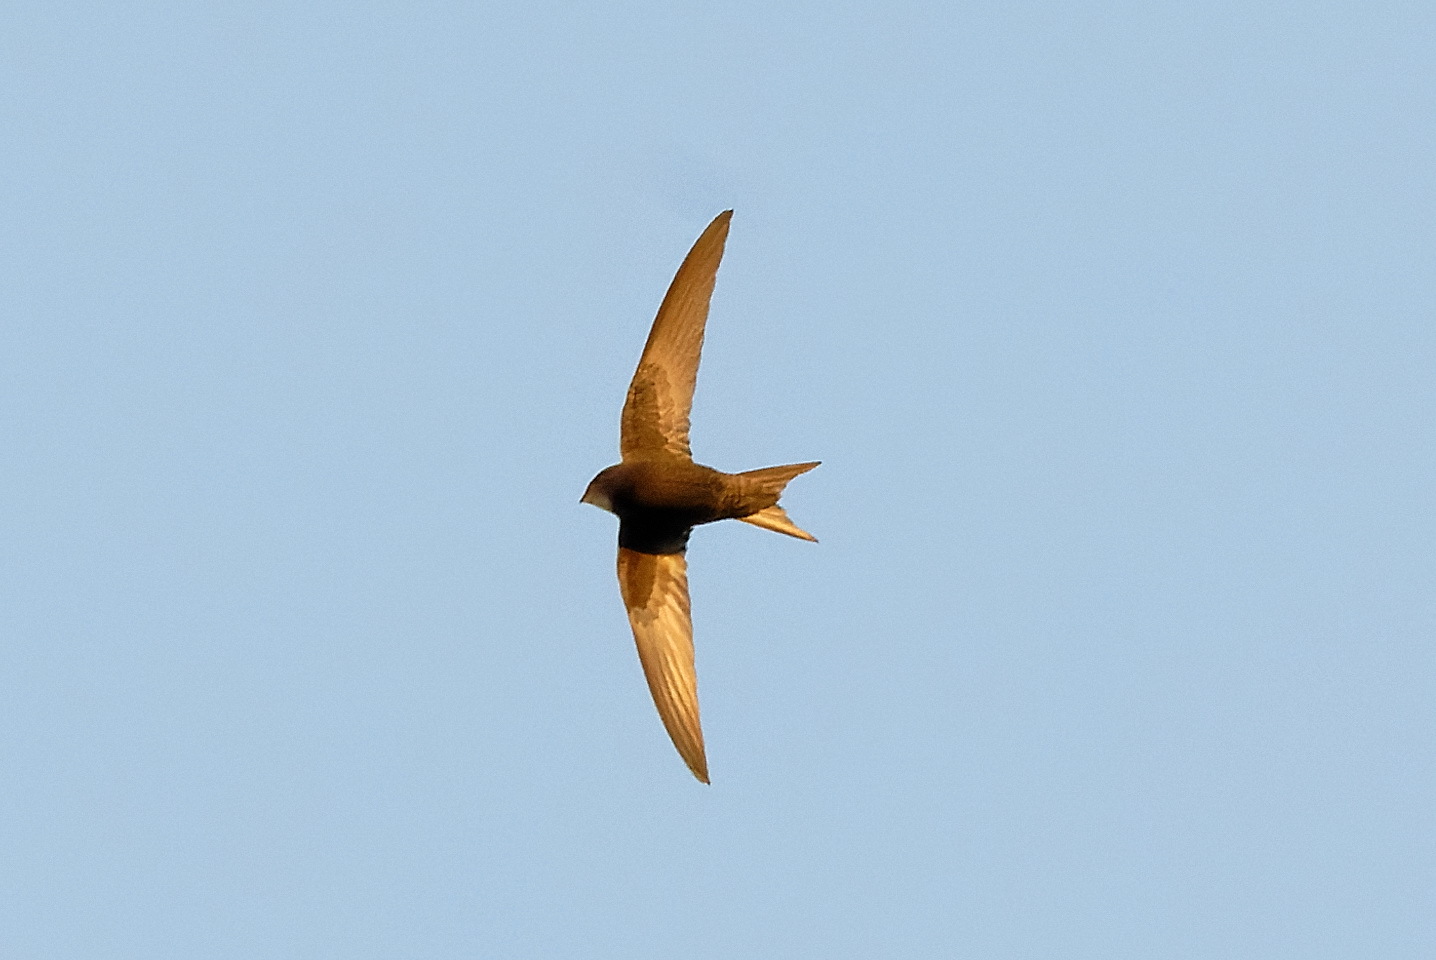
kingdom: Animalia
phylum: Chordata
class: Aves
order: Apodiformes
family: Apodidae
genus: Apus
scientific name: Apus apus
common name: Common swift
